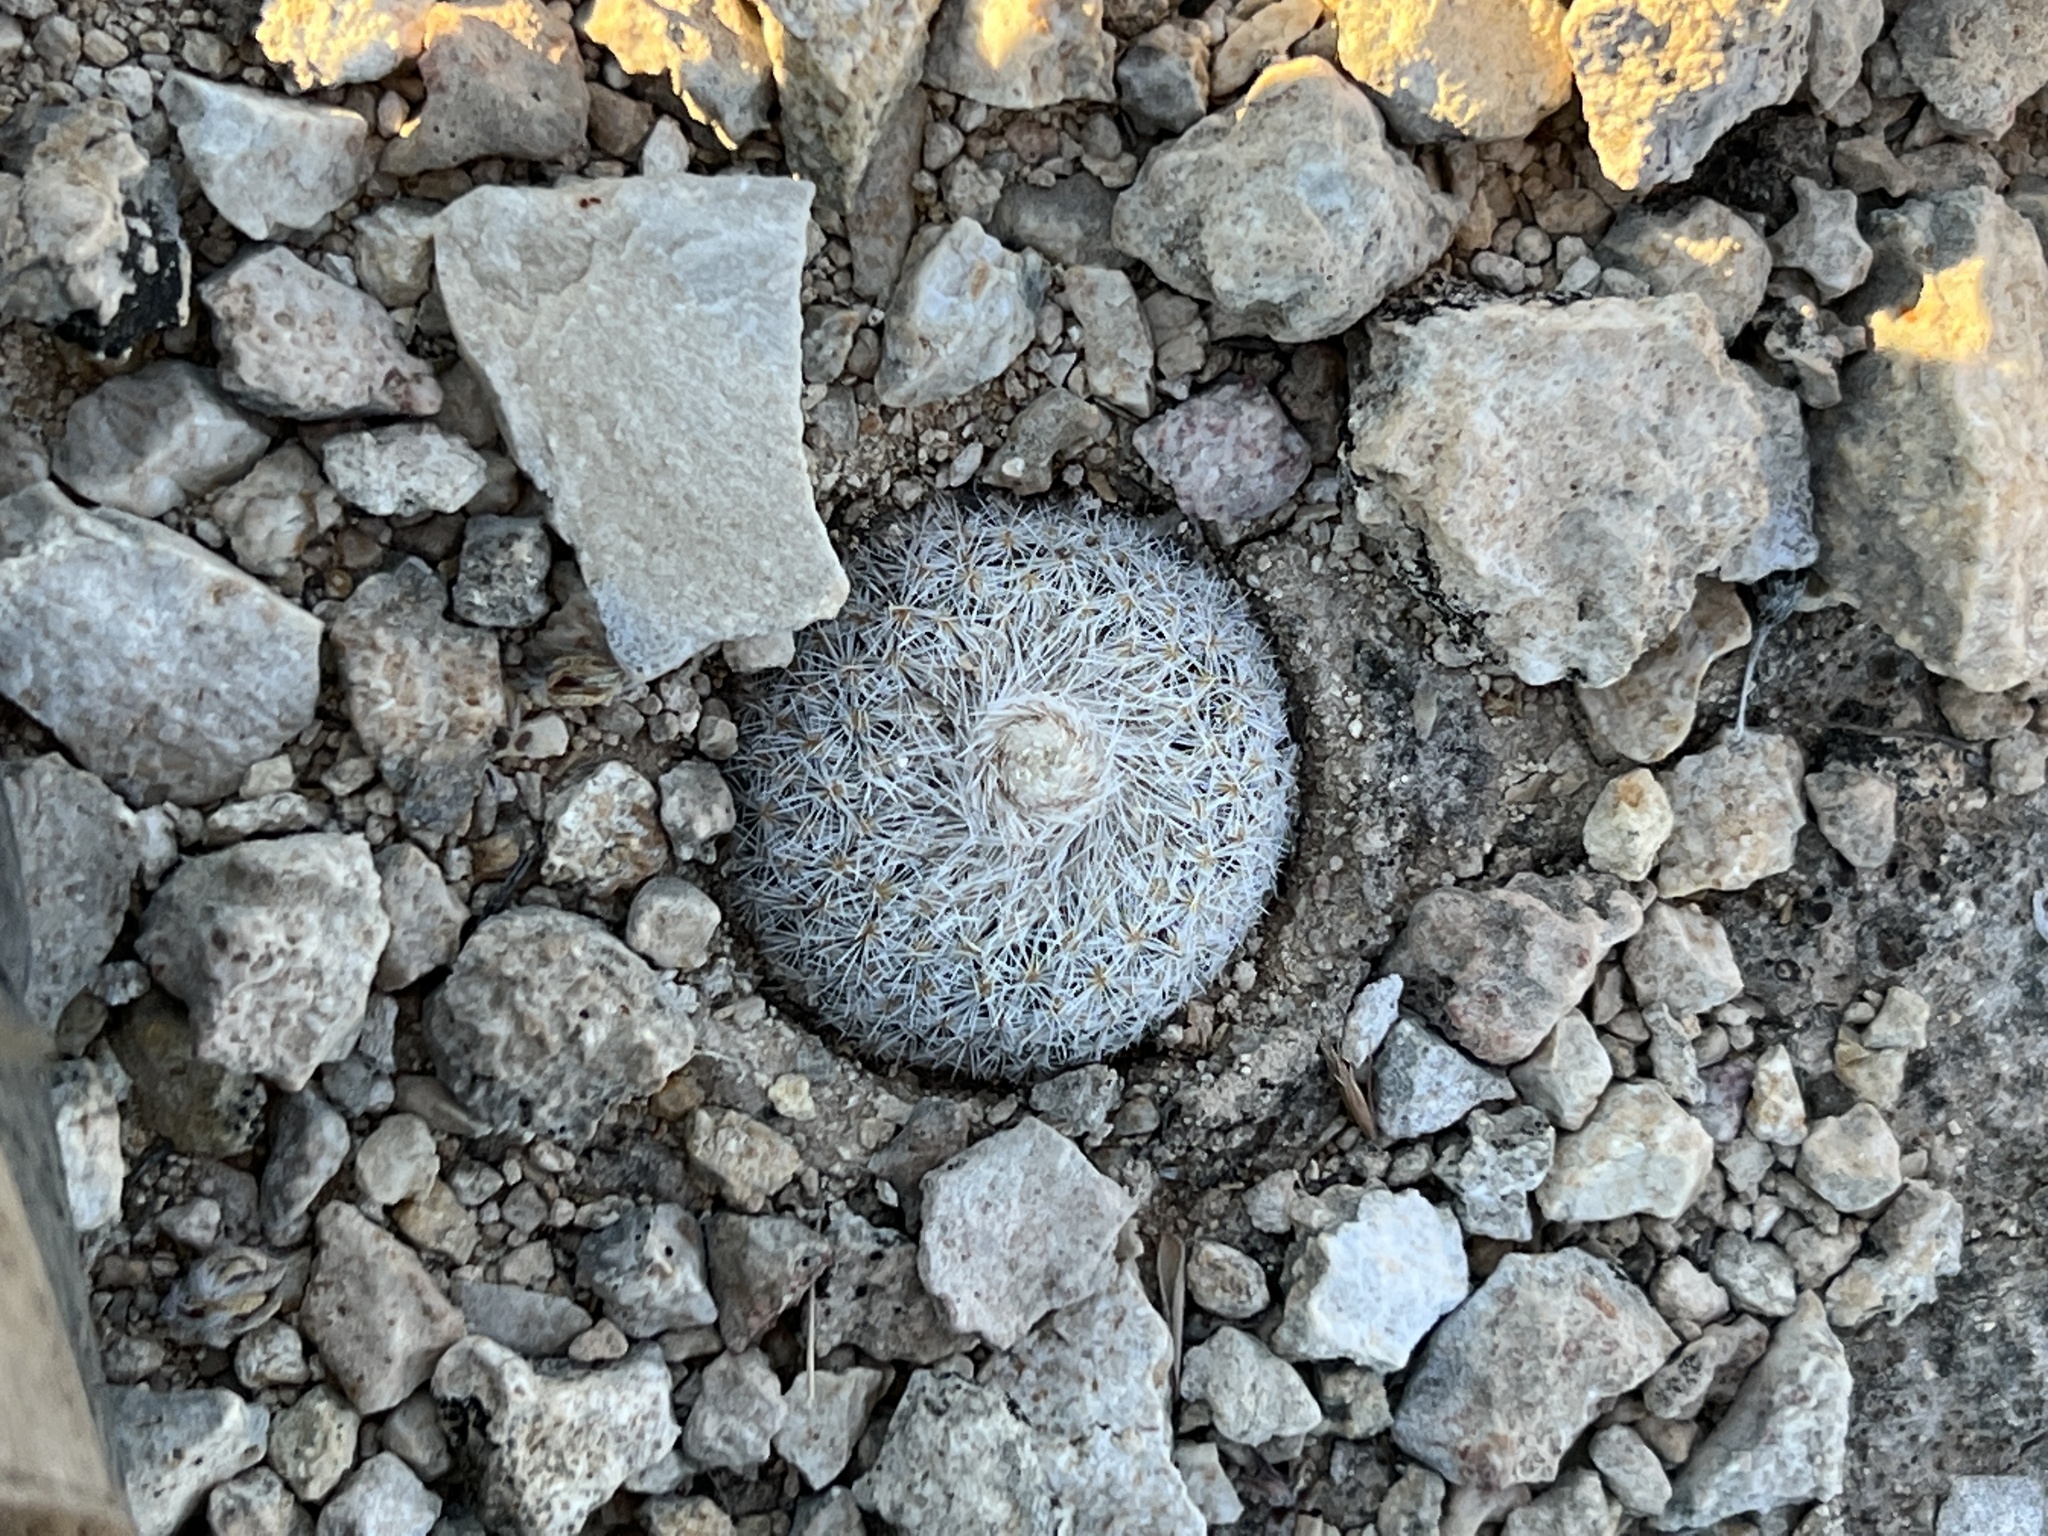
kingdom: Plantae
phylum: Tracheophyta
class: Magnoliopsida
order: Caryophyllales
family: Cactaceae
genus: Epithelantha
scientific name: Epithelantha micromeris
